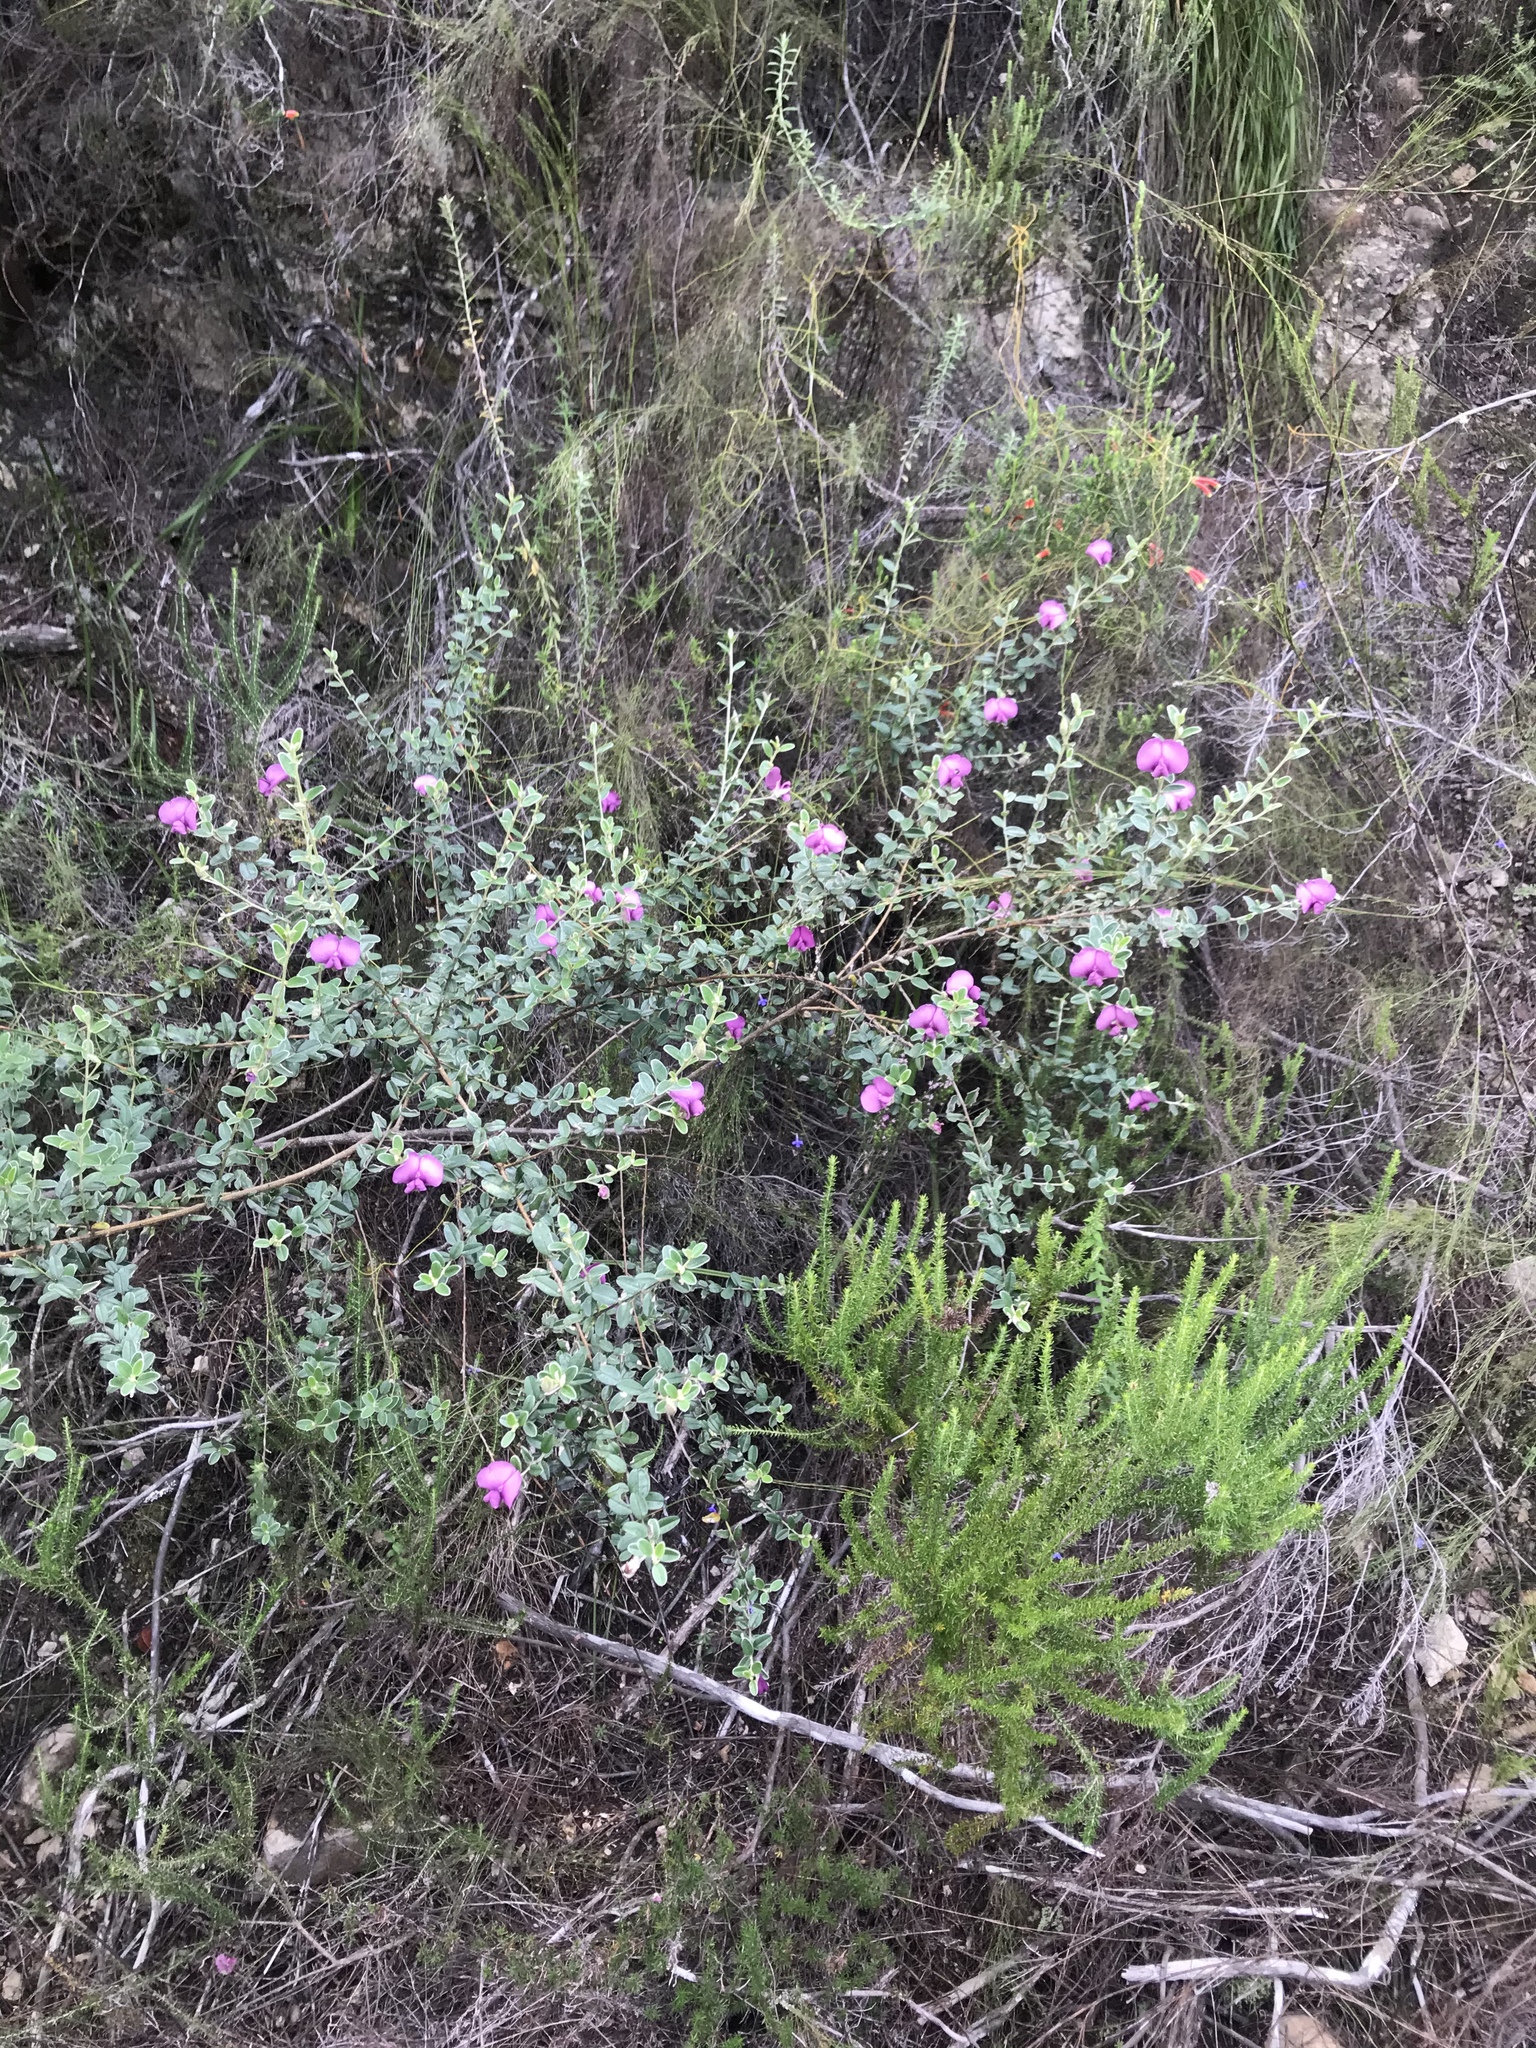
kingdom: Plantae
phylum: Tracheophyta
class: Magnoliopsida
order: Fabales
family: Fabaceae
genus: Podalyria
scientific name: Podalyria buxifolia
